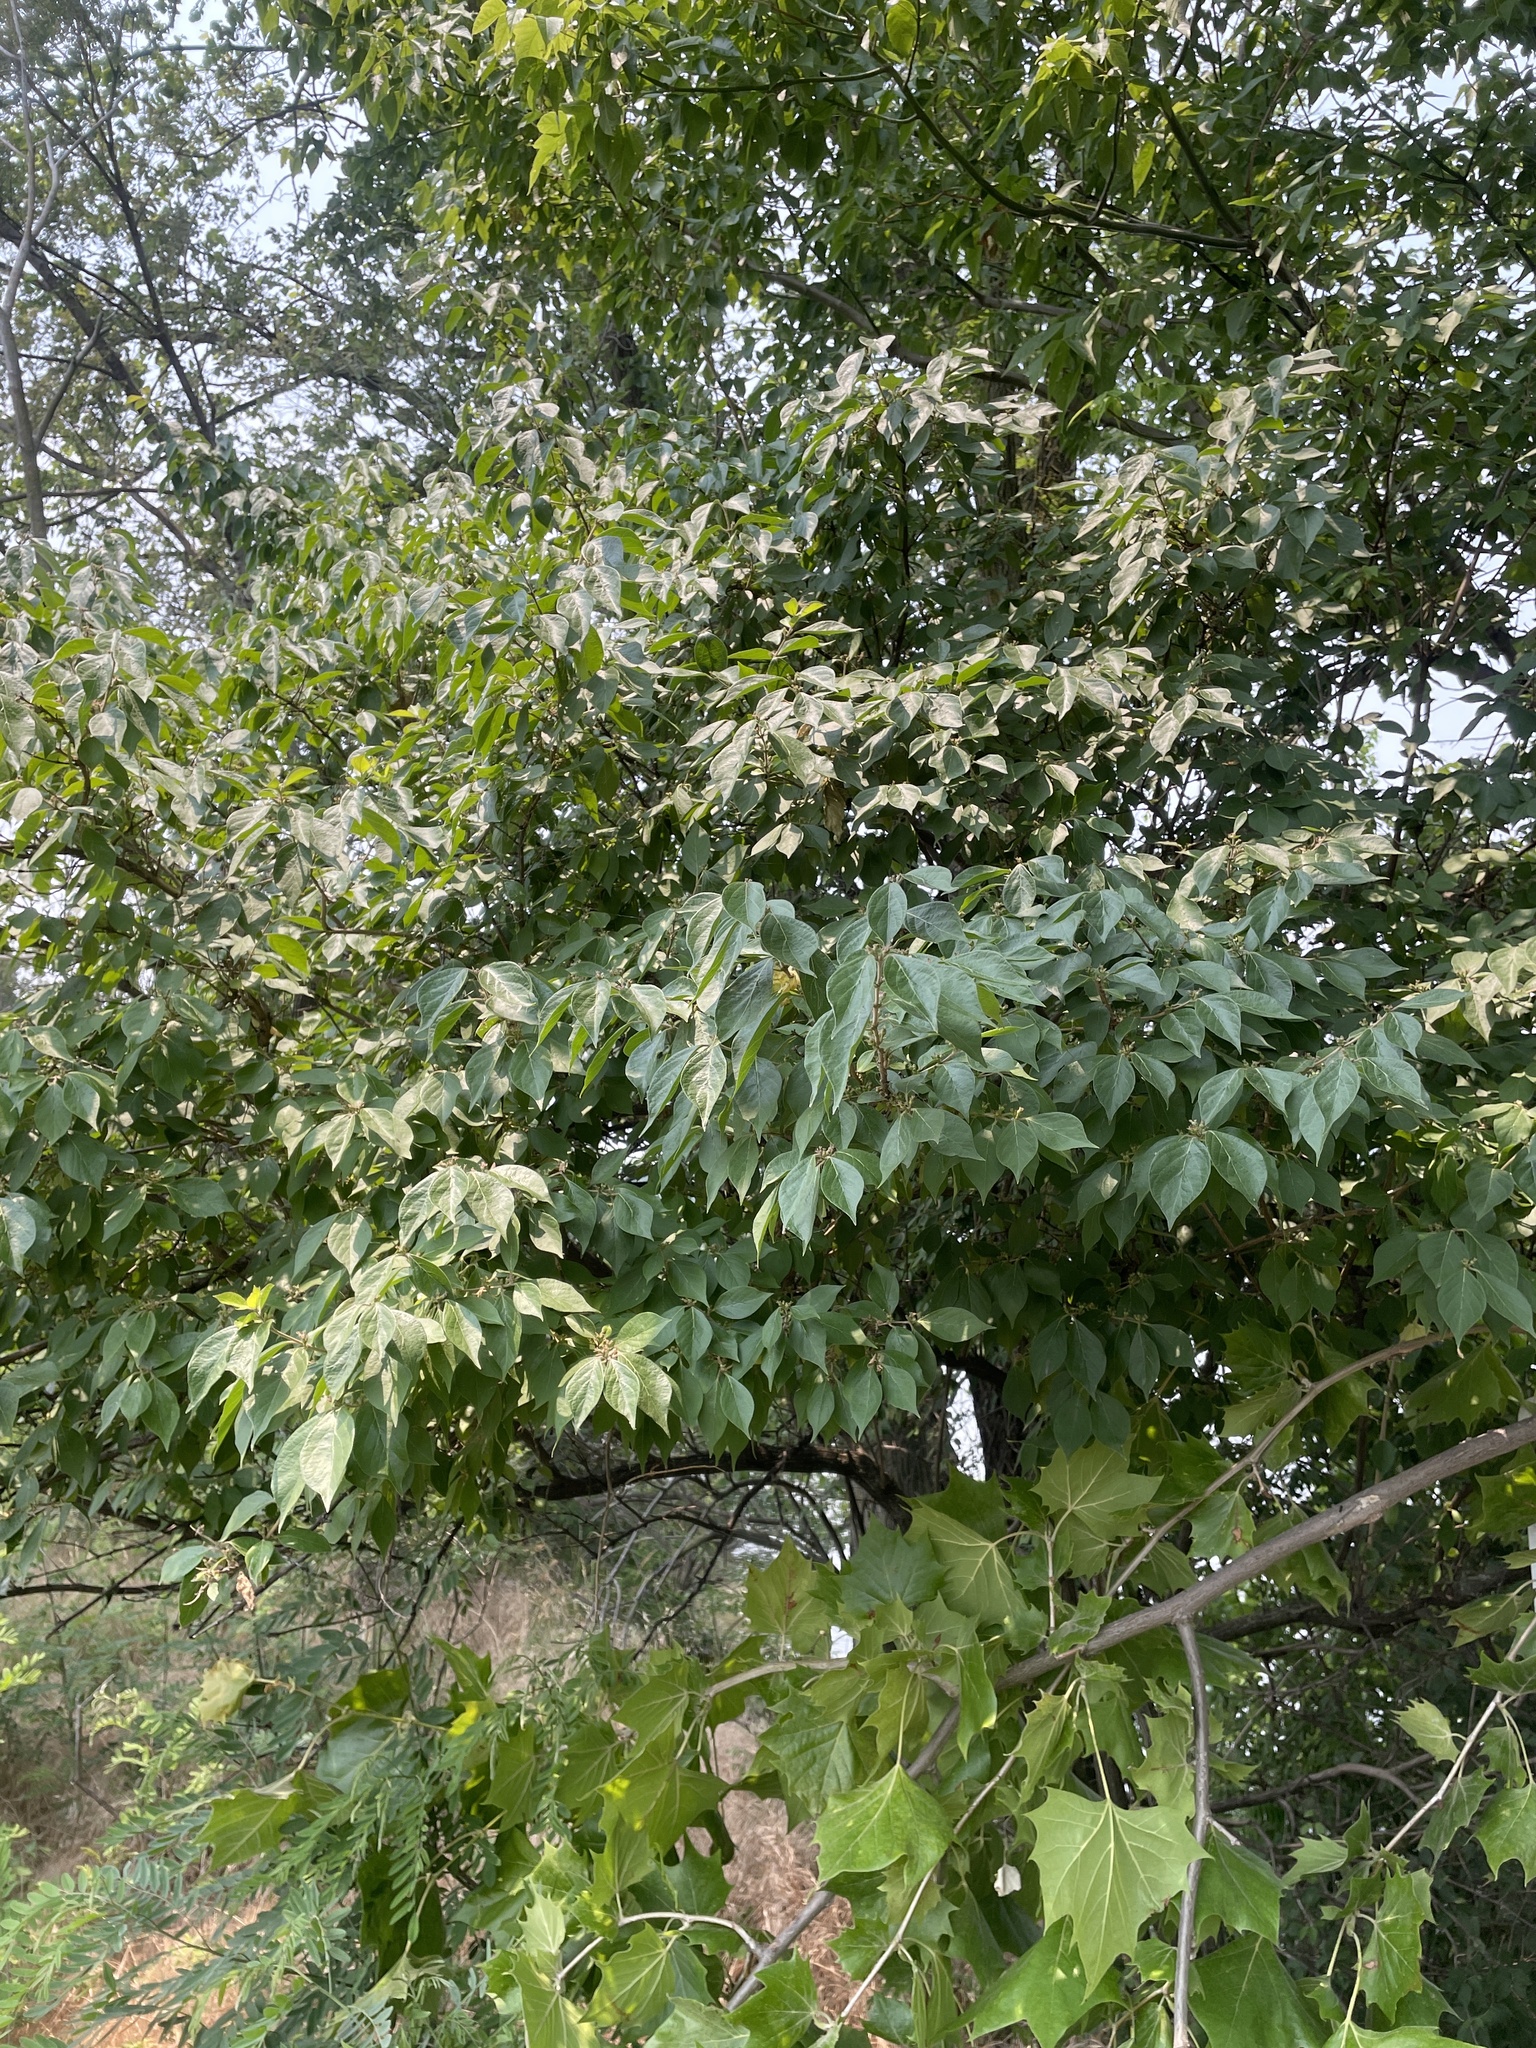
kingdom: Plantae
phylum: Tracheophyta
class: Magnoliopsida
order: Dipsacales
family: Caprifoliaceae
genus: Lonicera
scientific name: Lonicera maackii
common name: Amur honeysuckle
